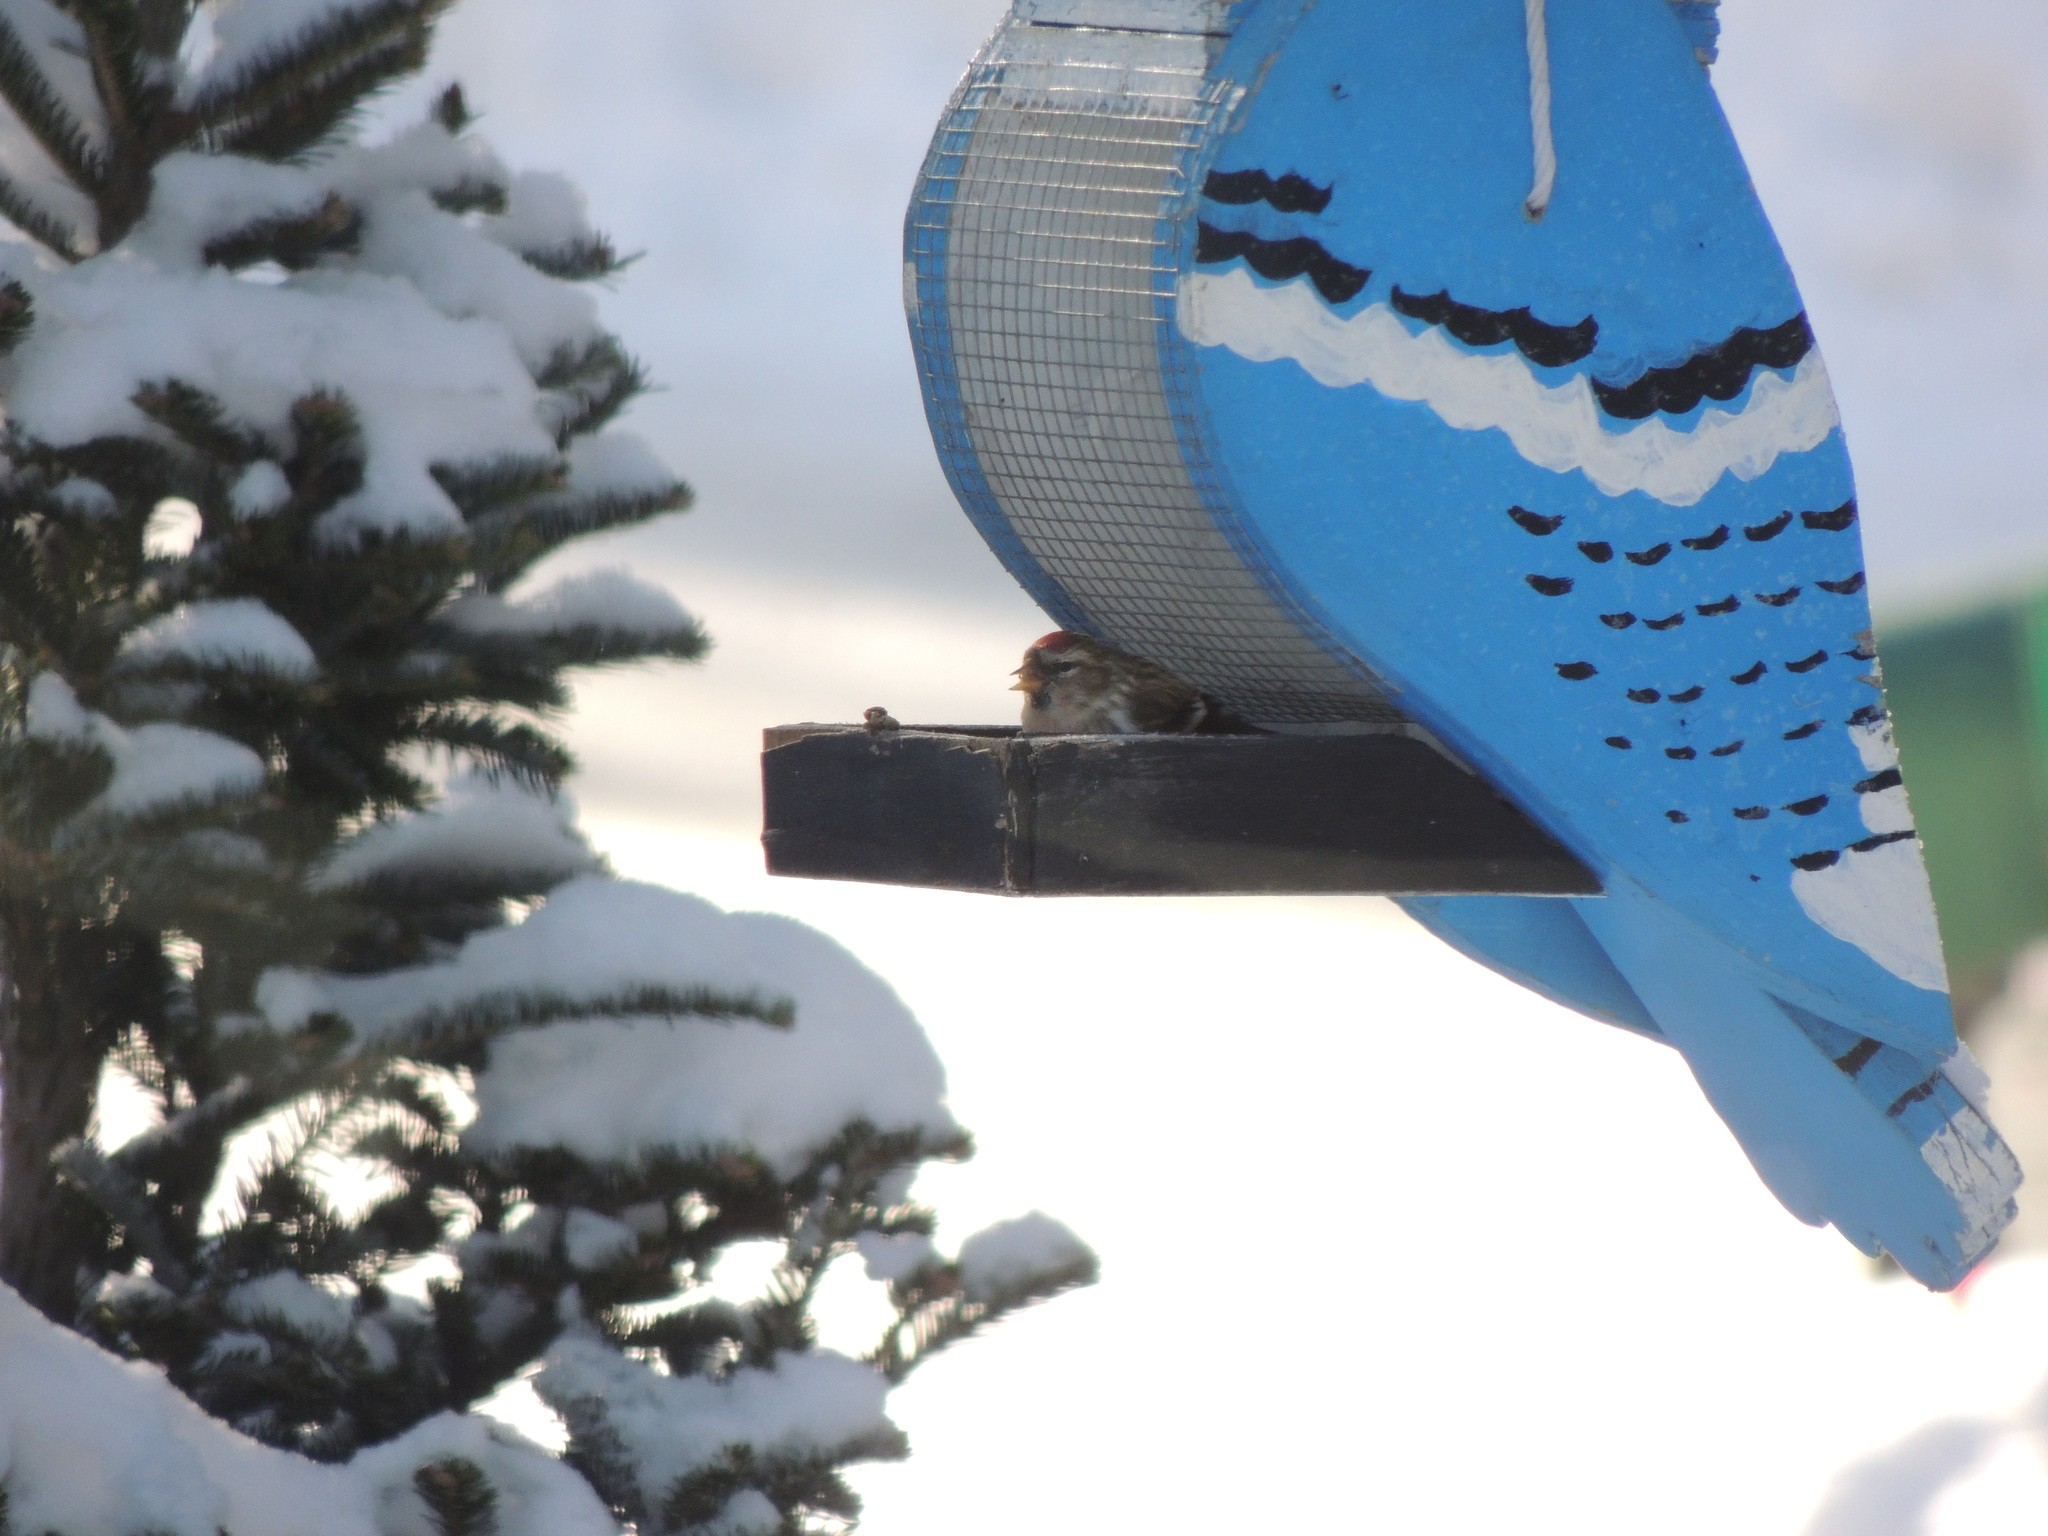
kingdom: Animalia
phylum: Chordata
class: Aves
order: Passeriformes
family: Fringillidae
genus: Acanthis
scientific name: Acanthis flammea
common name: Common redpoll
